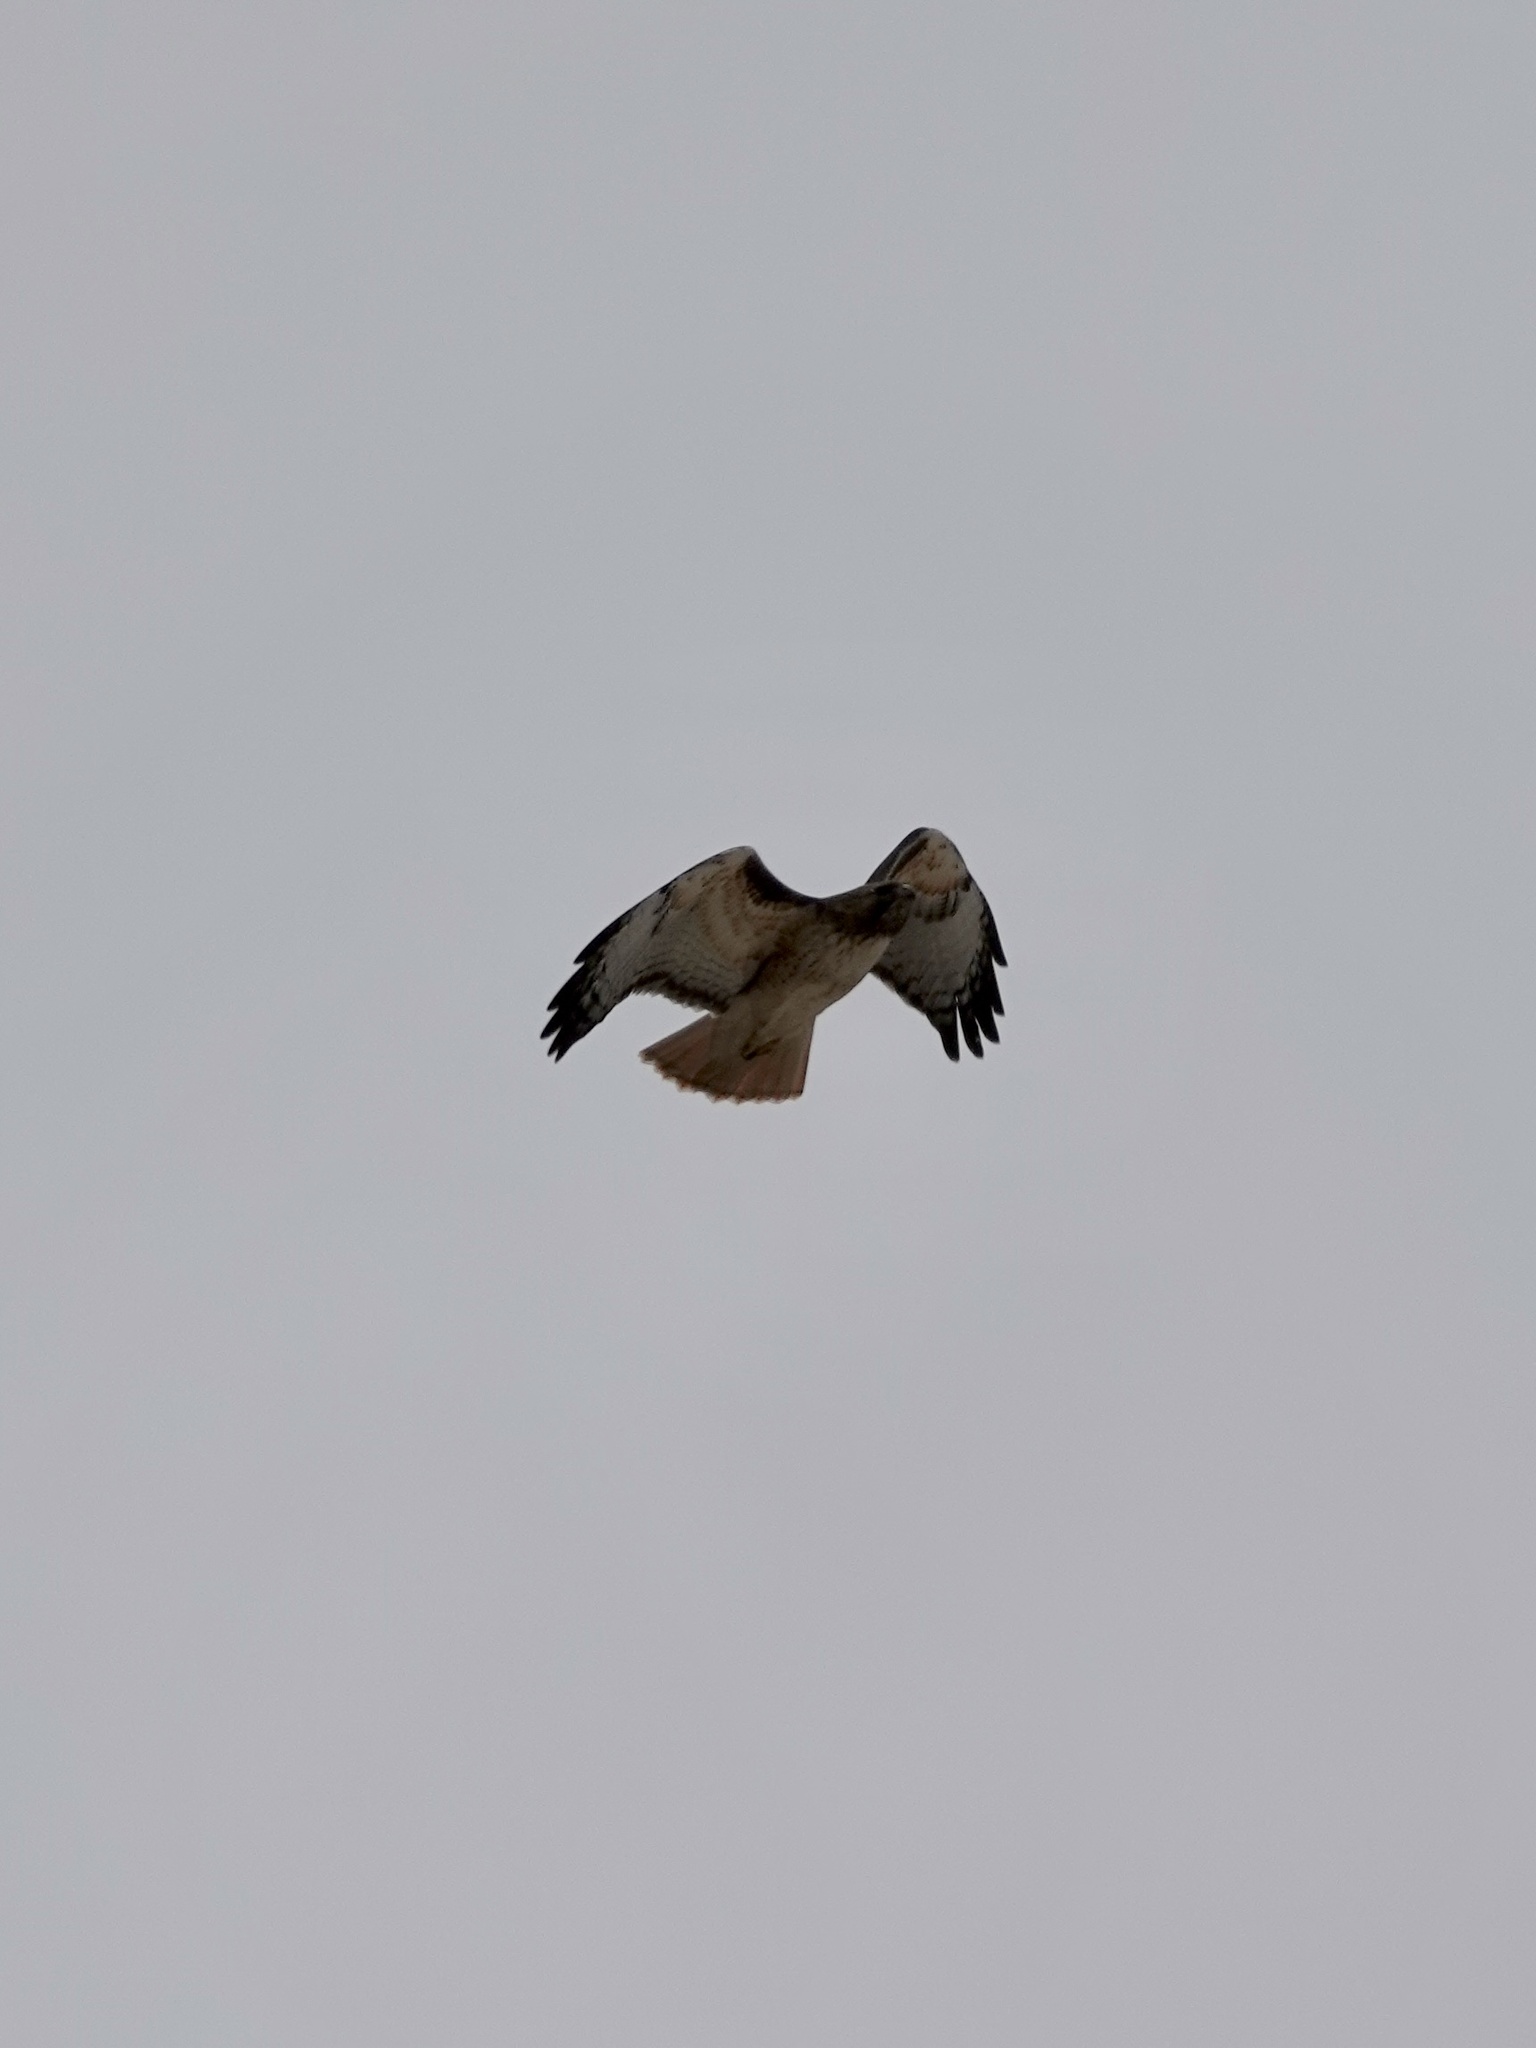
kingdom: Animalia
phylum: Chordata
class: Aves
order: Accipitriformes
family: Accipitridae
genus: Buteo
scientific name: Buteo jamaicensis
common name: Red-tailed hawk
